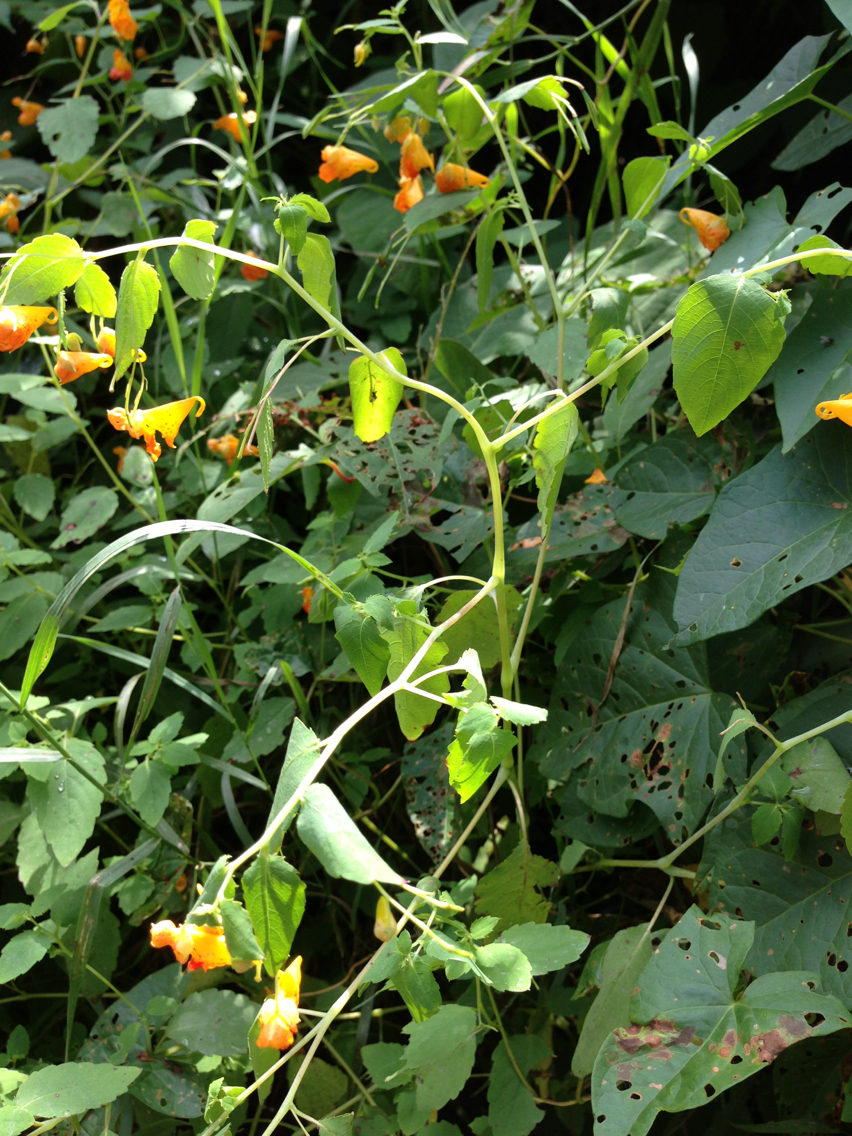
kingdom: Plantae
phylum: Tracheophyta
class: Magnoliopsida
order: Ericales
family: Balsaminaceae
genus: Impatiens
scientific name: Impatiens capensis
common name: Orange balsam
